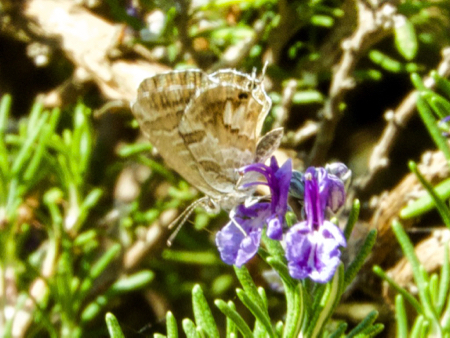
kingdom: Animalia
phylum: Arthropoda
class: Insecta
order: Lepidoptera
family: Lycaenidae
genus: Cacyreus
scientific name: Cacyreus marshalli
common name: Geranium bronze
